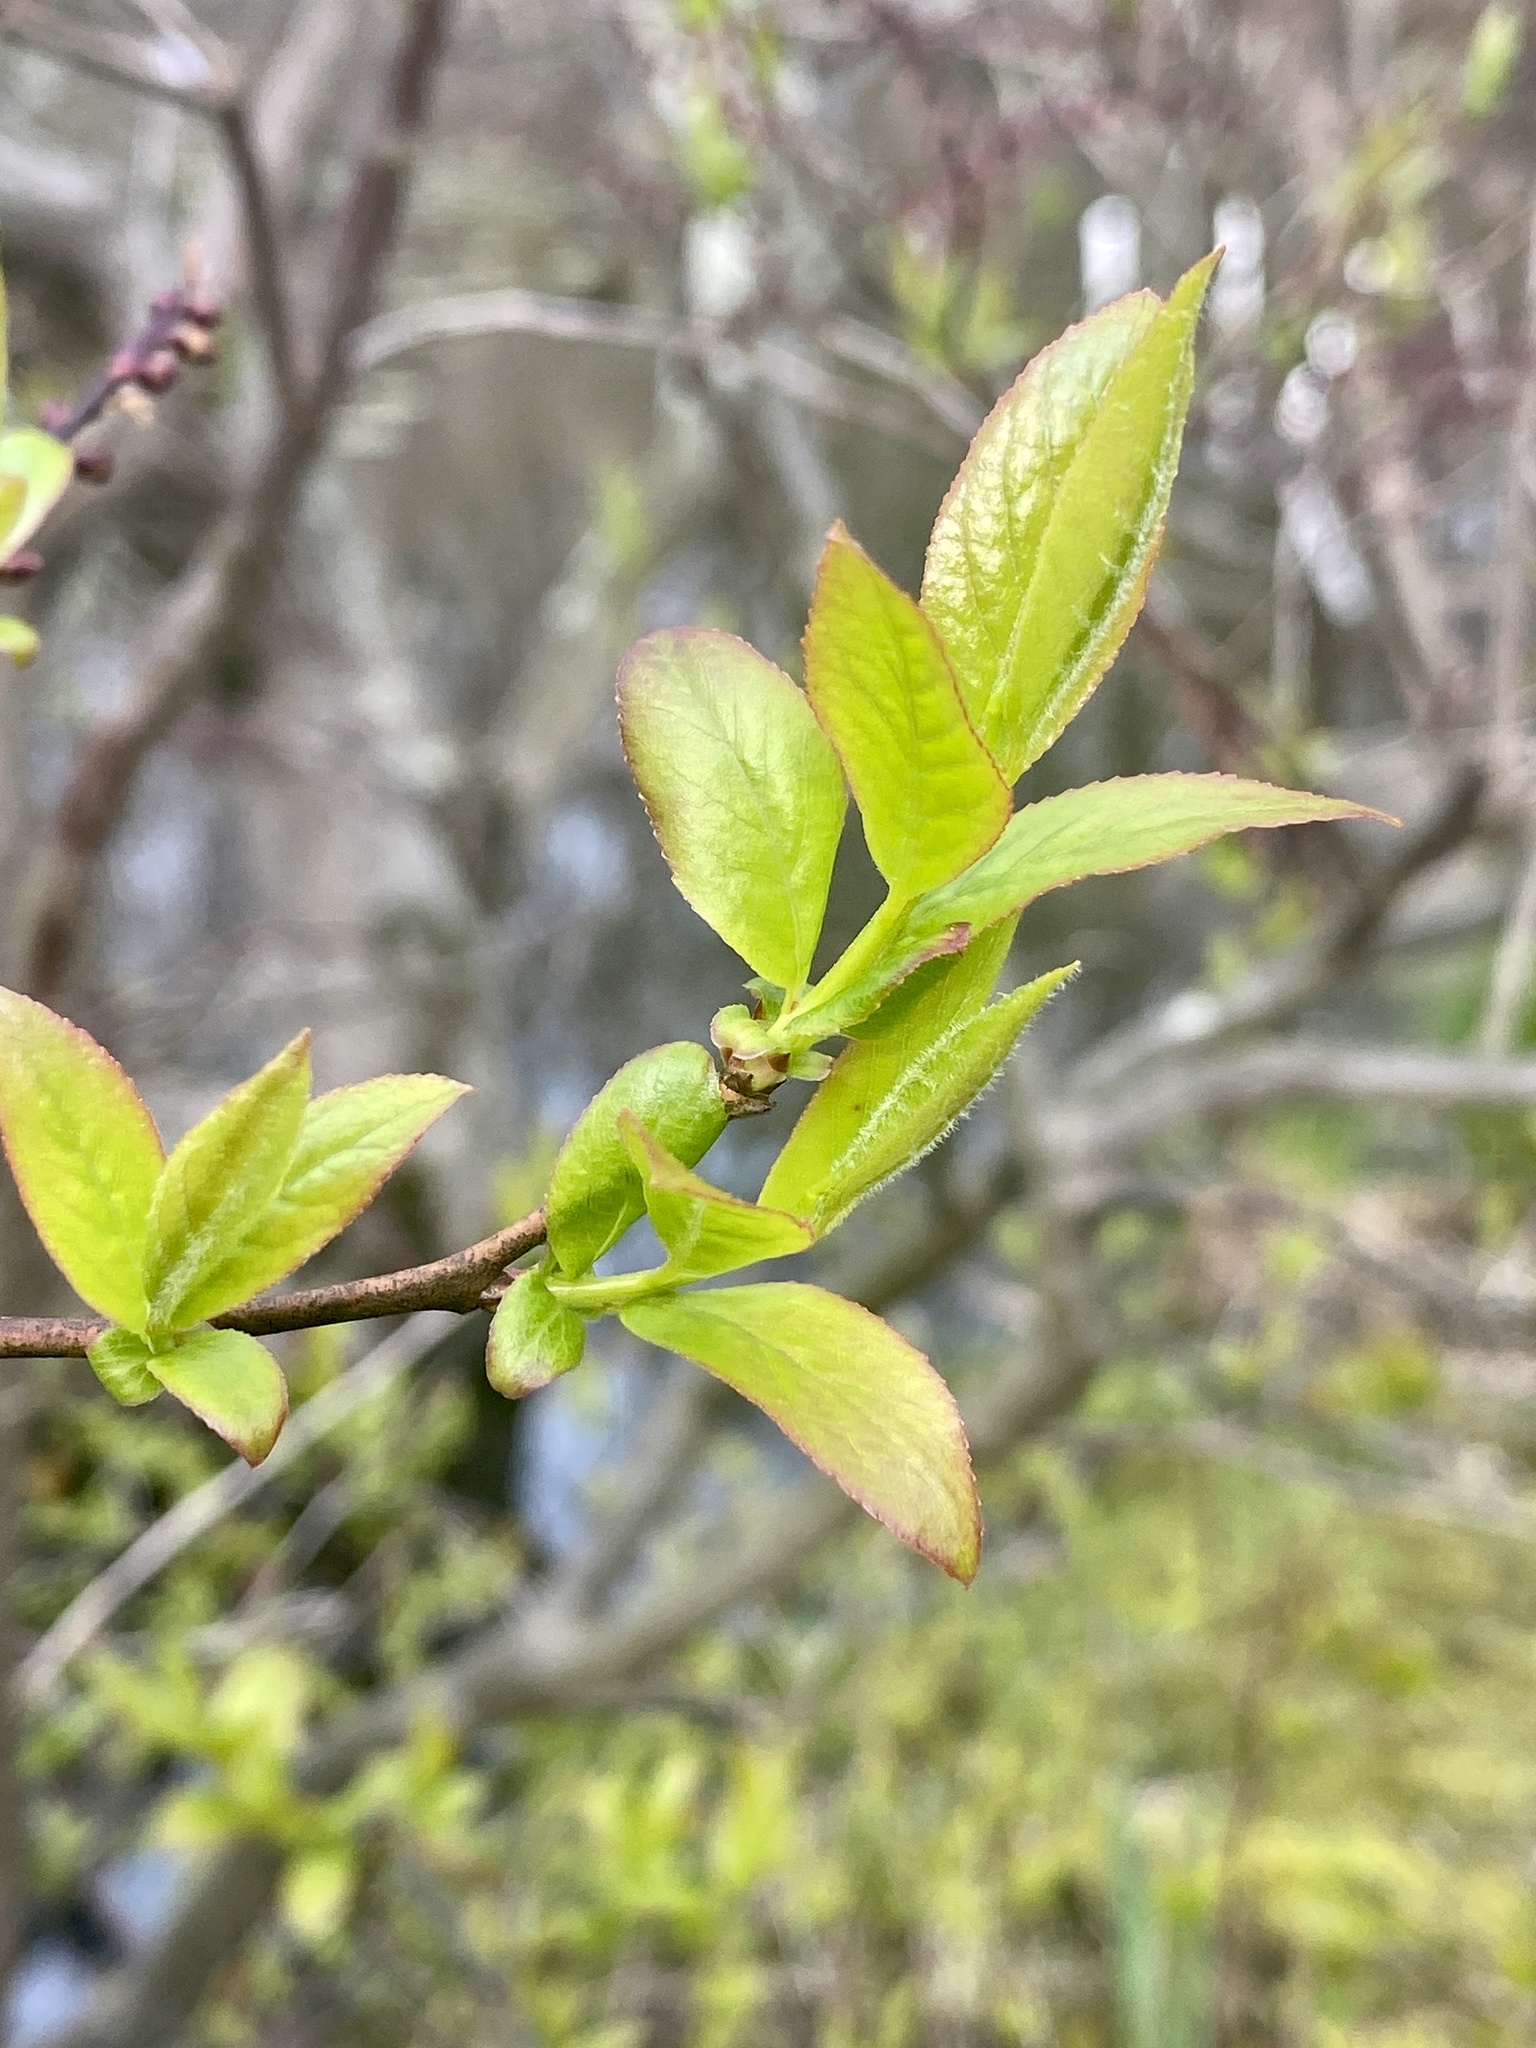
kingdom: Plantae
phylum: Tracheophyta
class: Magnoliopsida
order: Ericales
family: Ericaceae
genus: Eubotrys
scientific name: Eubotrys racemosa
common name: Fetterbush
